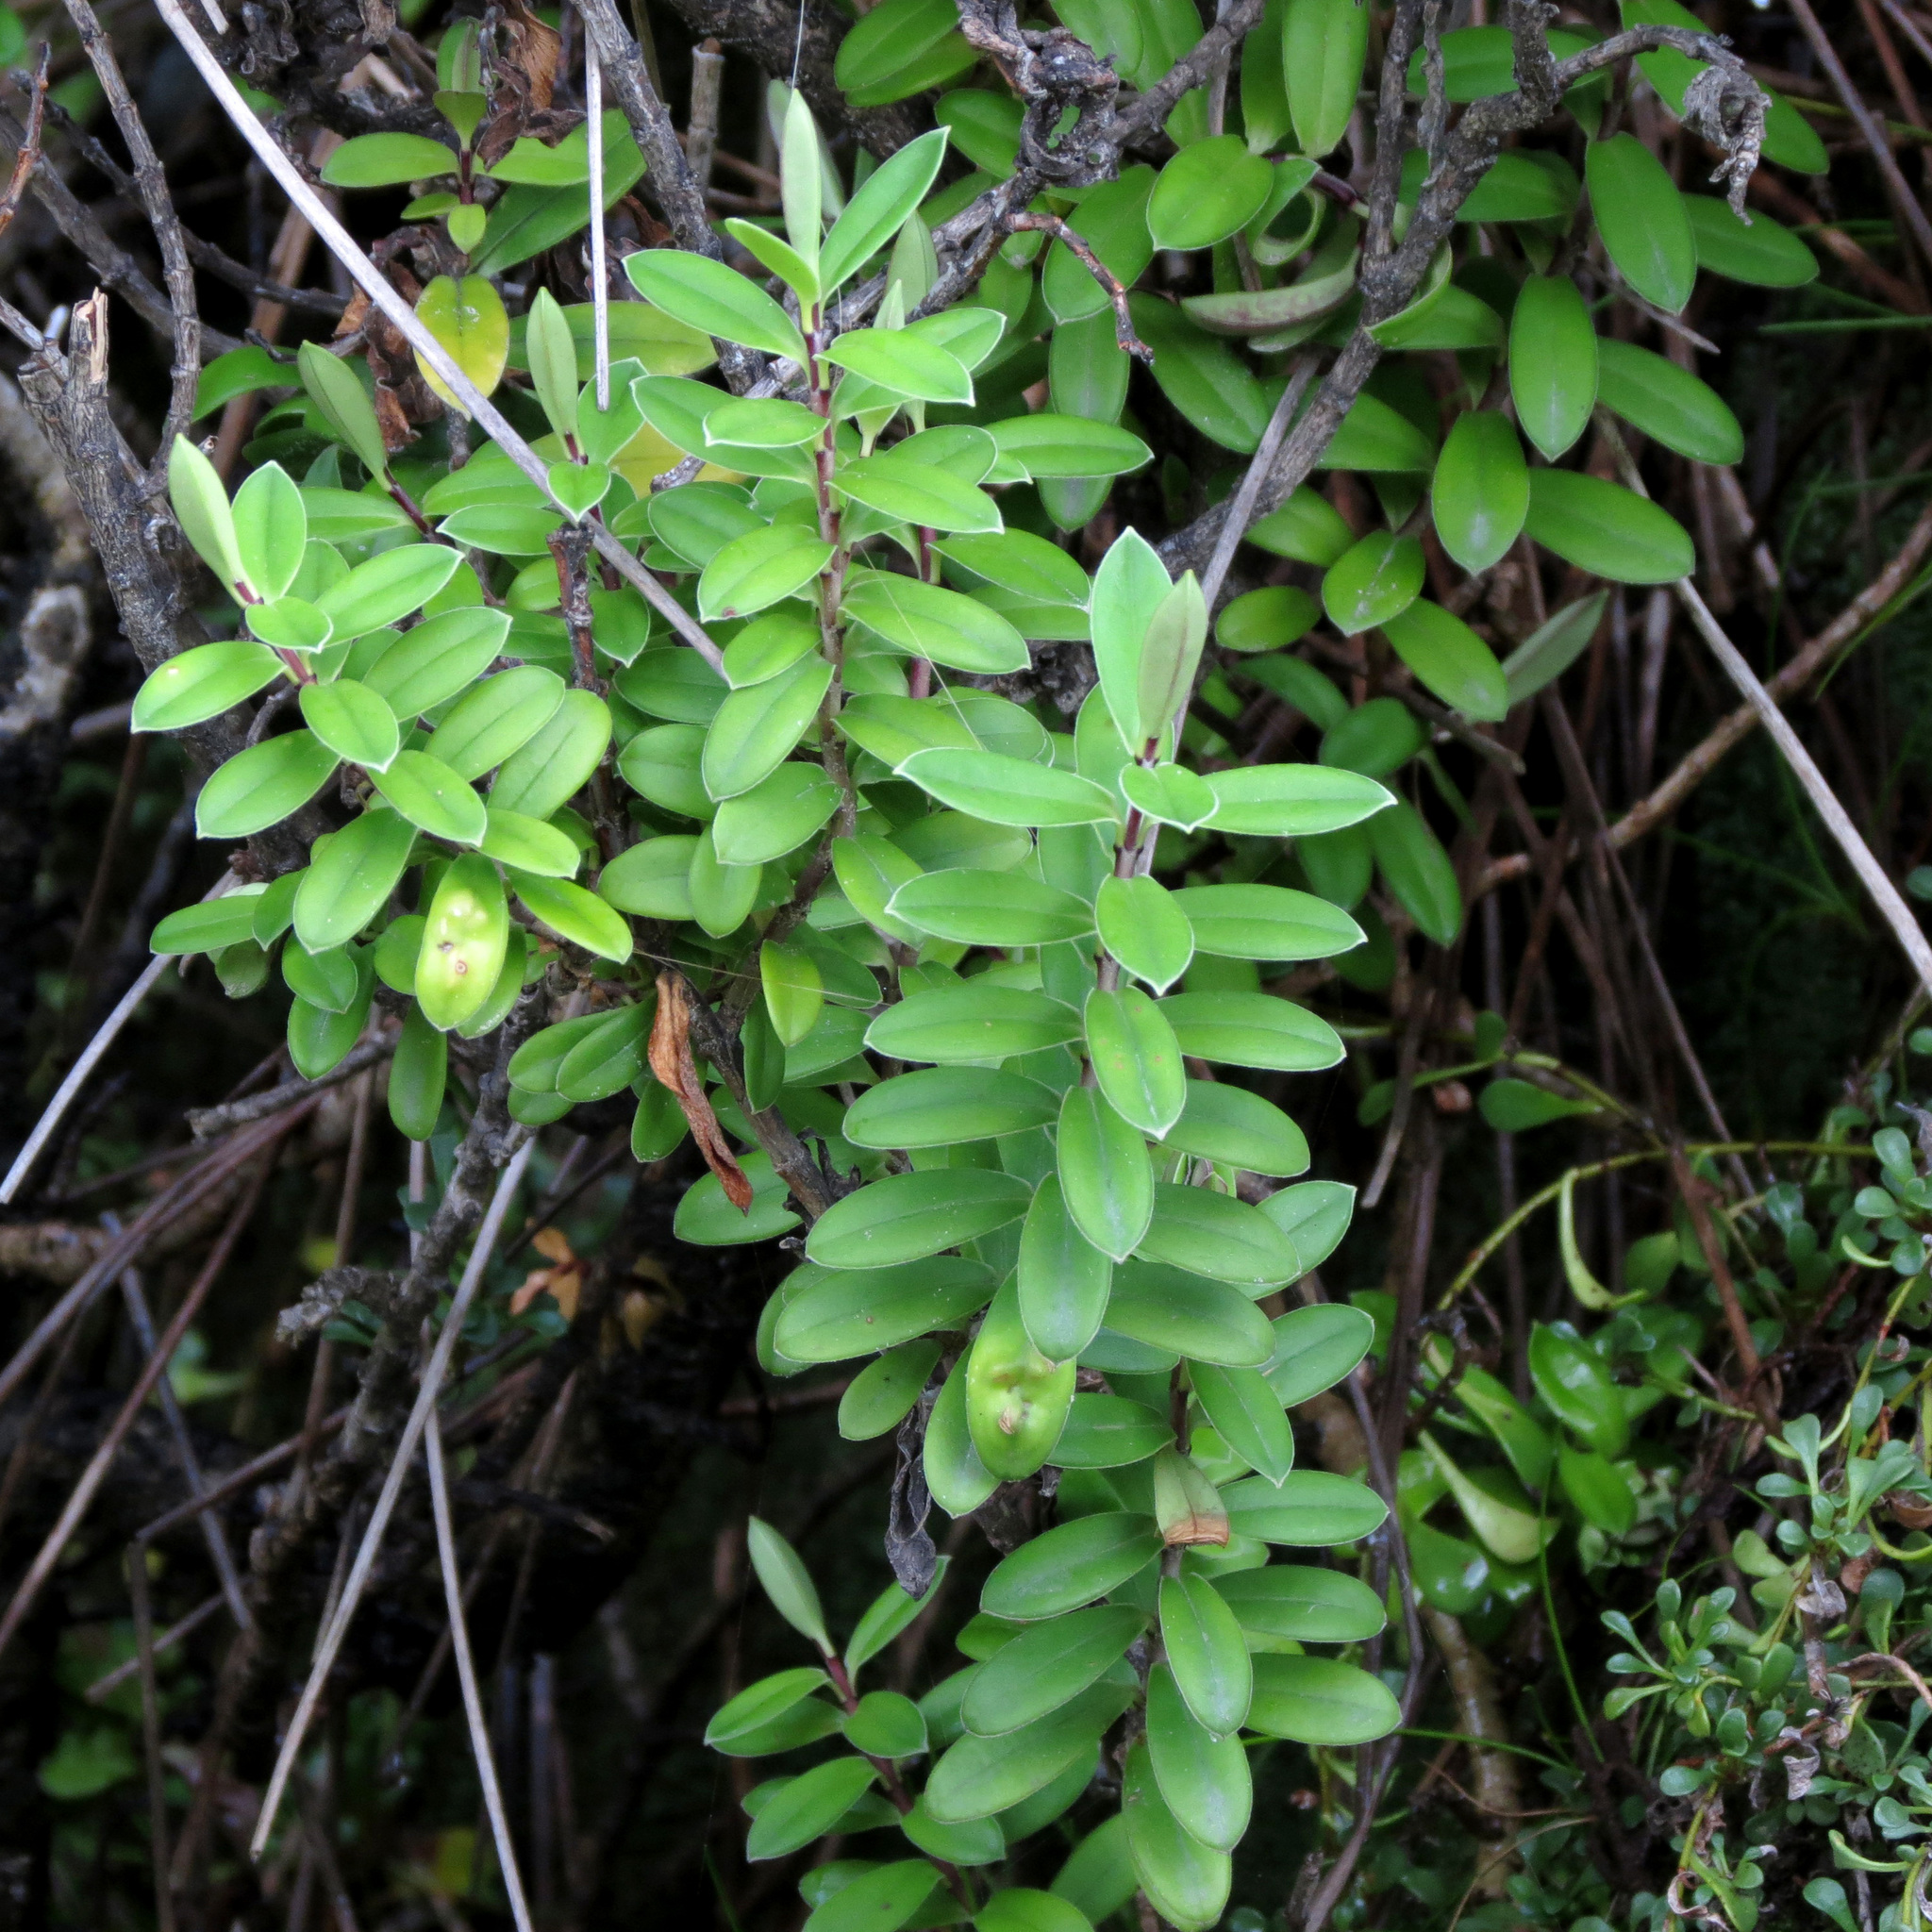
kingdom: Plantae
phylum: Tracheophyta
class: Magnoliopsida
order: Lamiales
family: Plantaginaceae
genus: Veronica
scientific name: Veronica elliptica
